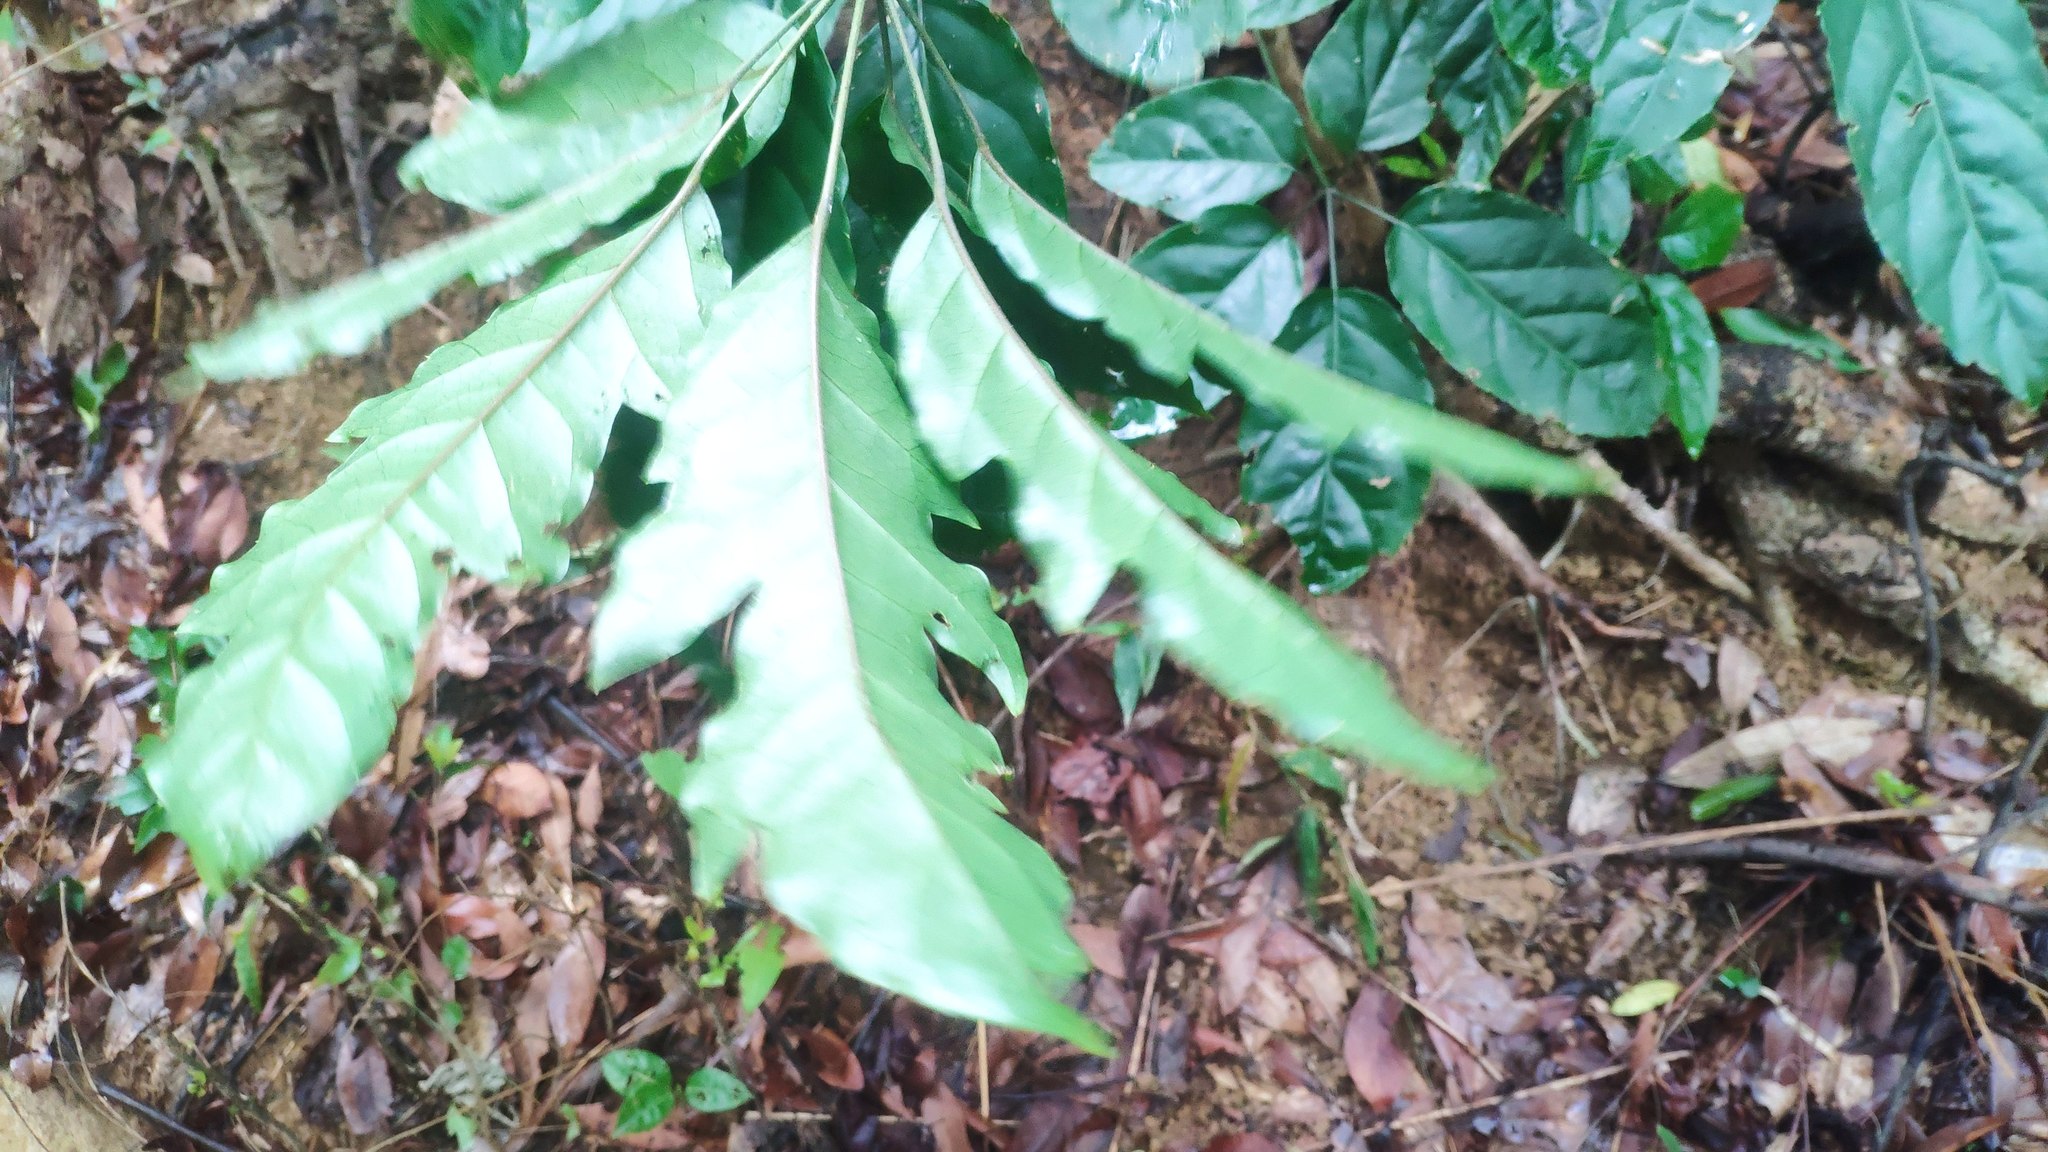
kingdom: Plantae
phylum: Tracheophyta
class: Magnoliopsida
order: Apiales
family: Araliaceae
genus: Heptapleurum
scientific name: Heptapleurum heptaphyllum
